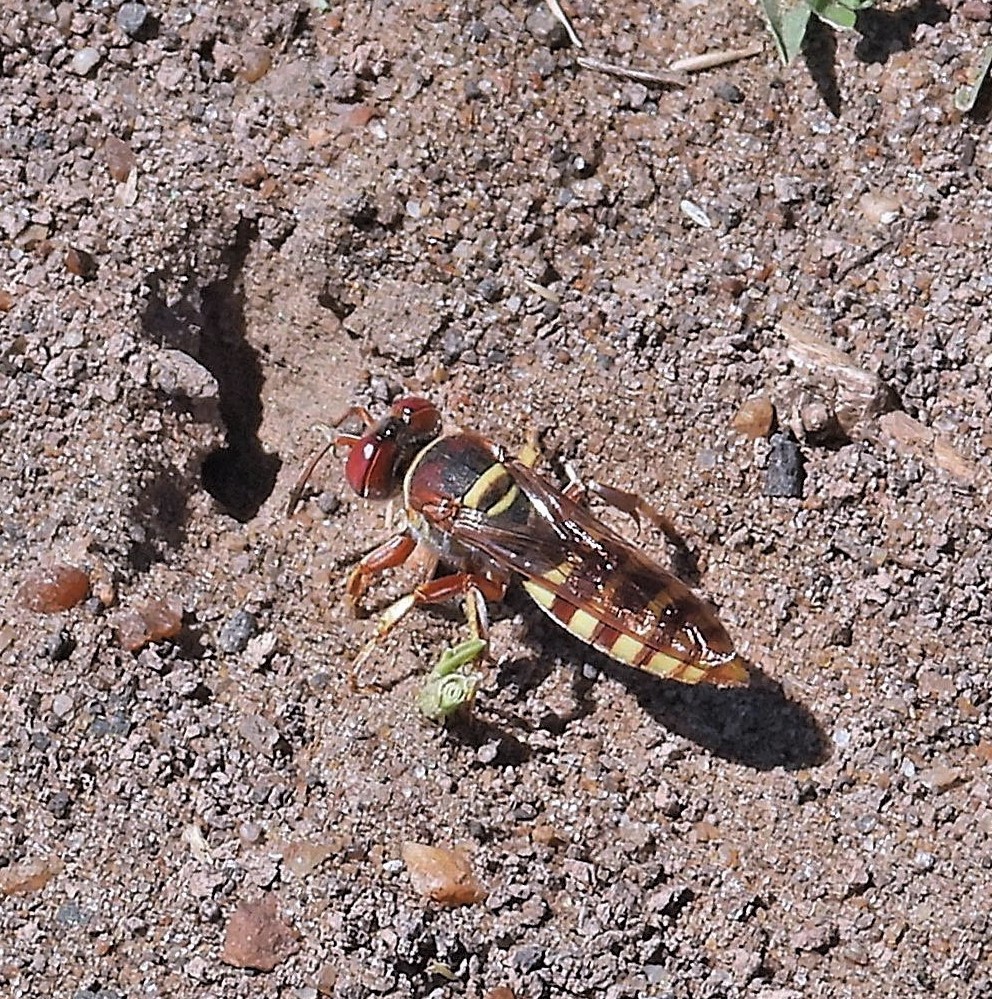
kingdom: Animalia
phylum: Arthropoda
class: Insecta
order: Hymenoptera
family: Crabronidae
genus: Rubrica
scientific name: Rubrica nasuta
